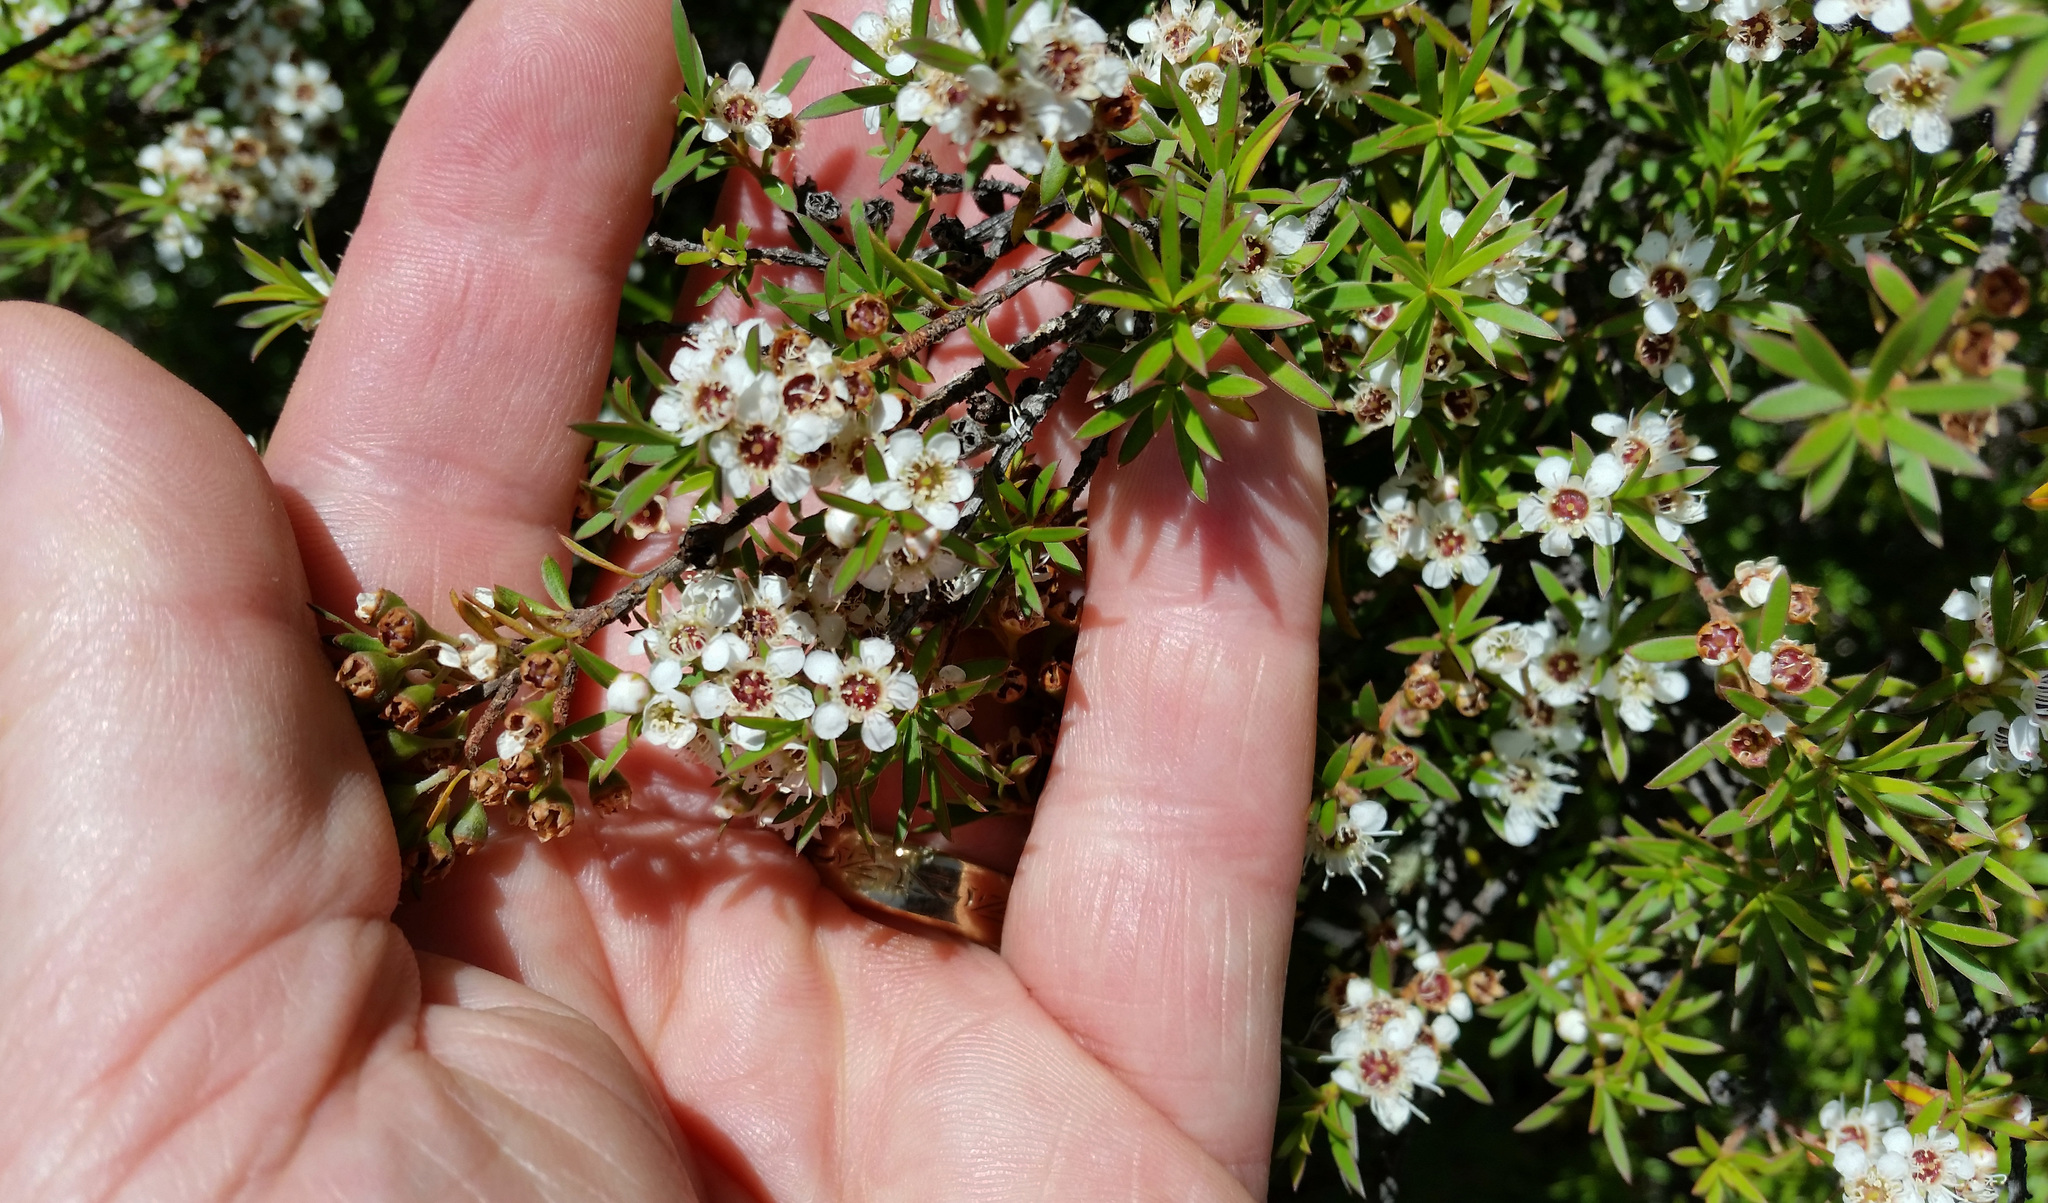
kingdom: Plantae
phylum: Tracheophyta
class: Magnoliopsida
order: Myrtales
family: Myrtaceae
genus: Kunzea
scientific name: Kunzea robusta
